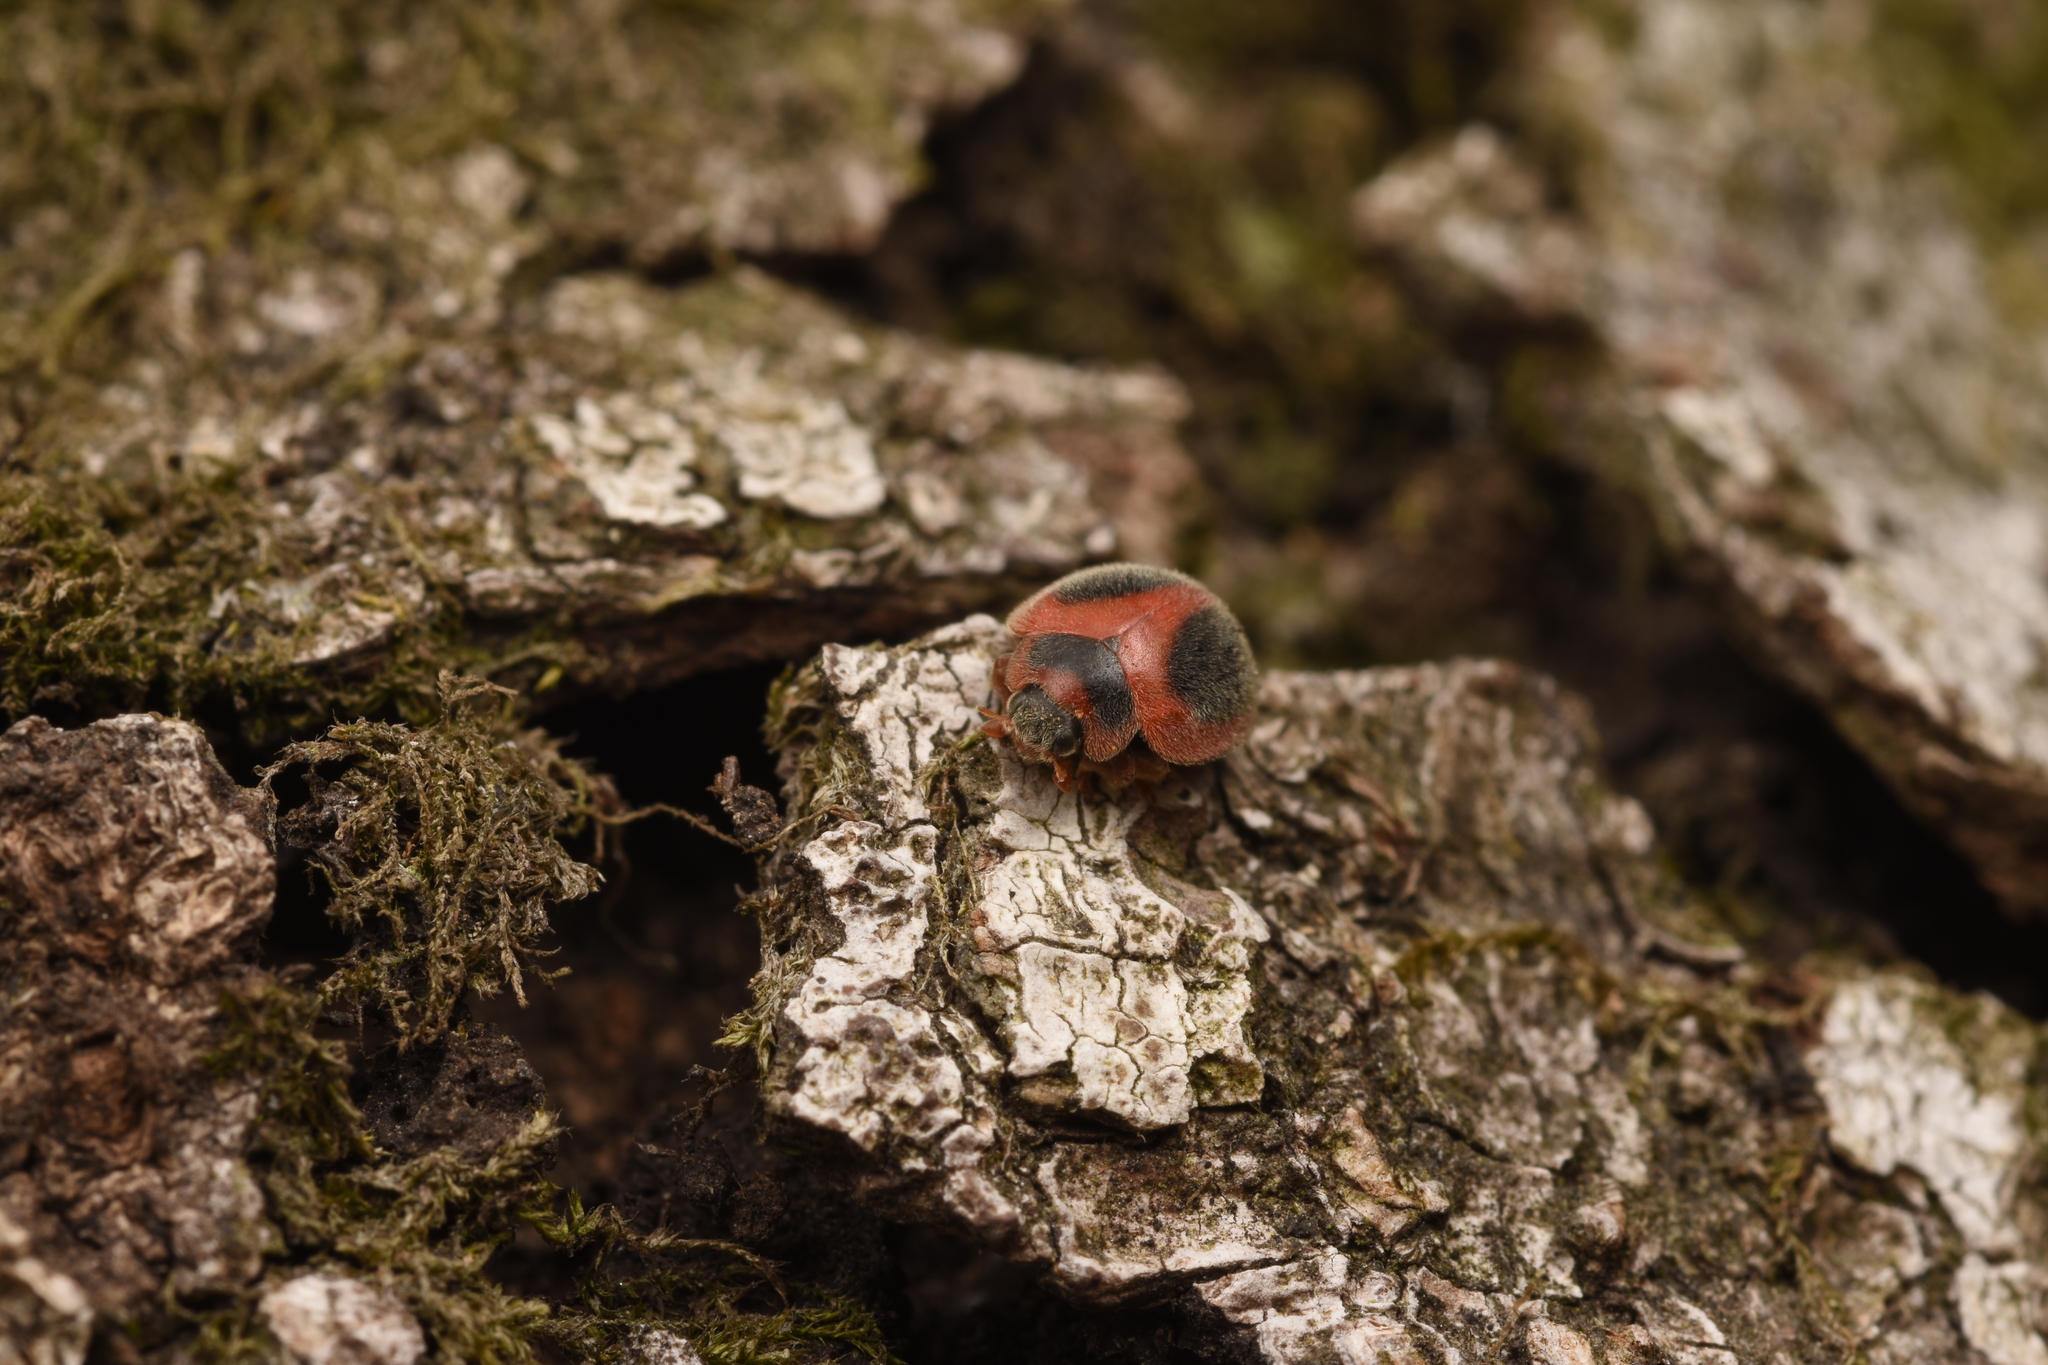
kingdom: Animalia
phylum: Arthropoda
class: Insecta
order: Coleoptera
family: Coccinellidae
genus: Novius
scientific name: Novius koebelei
